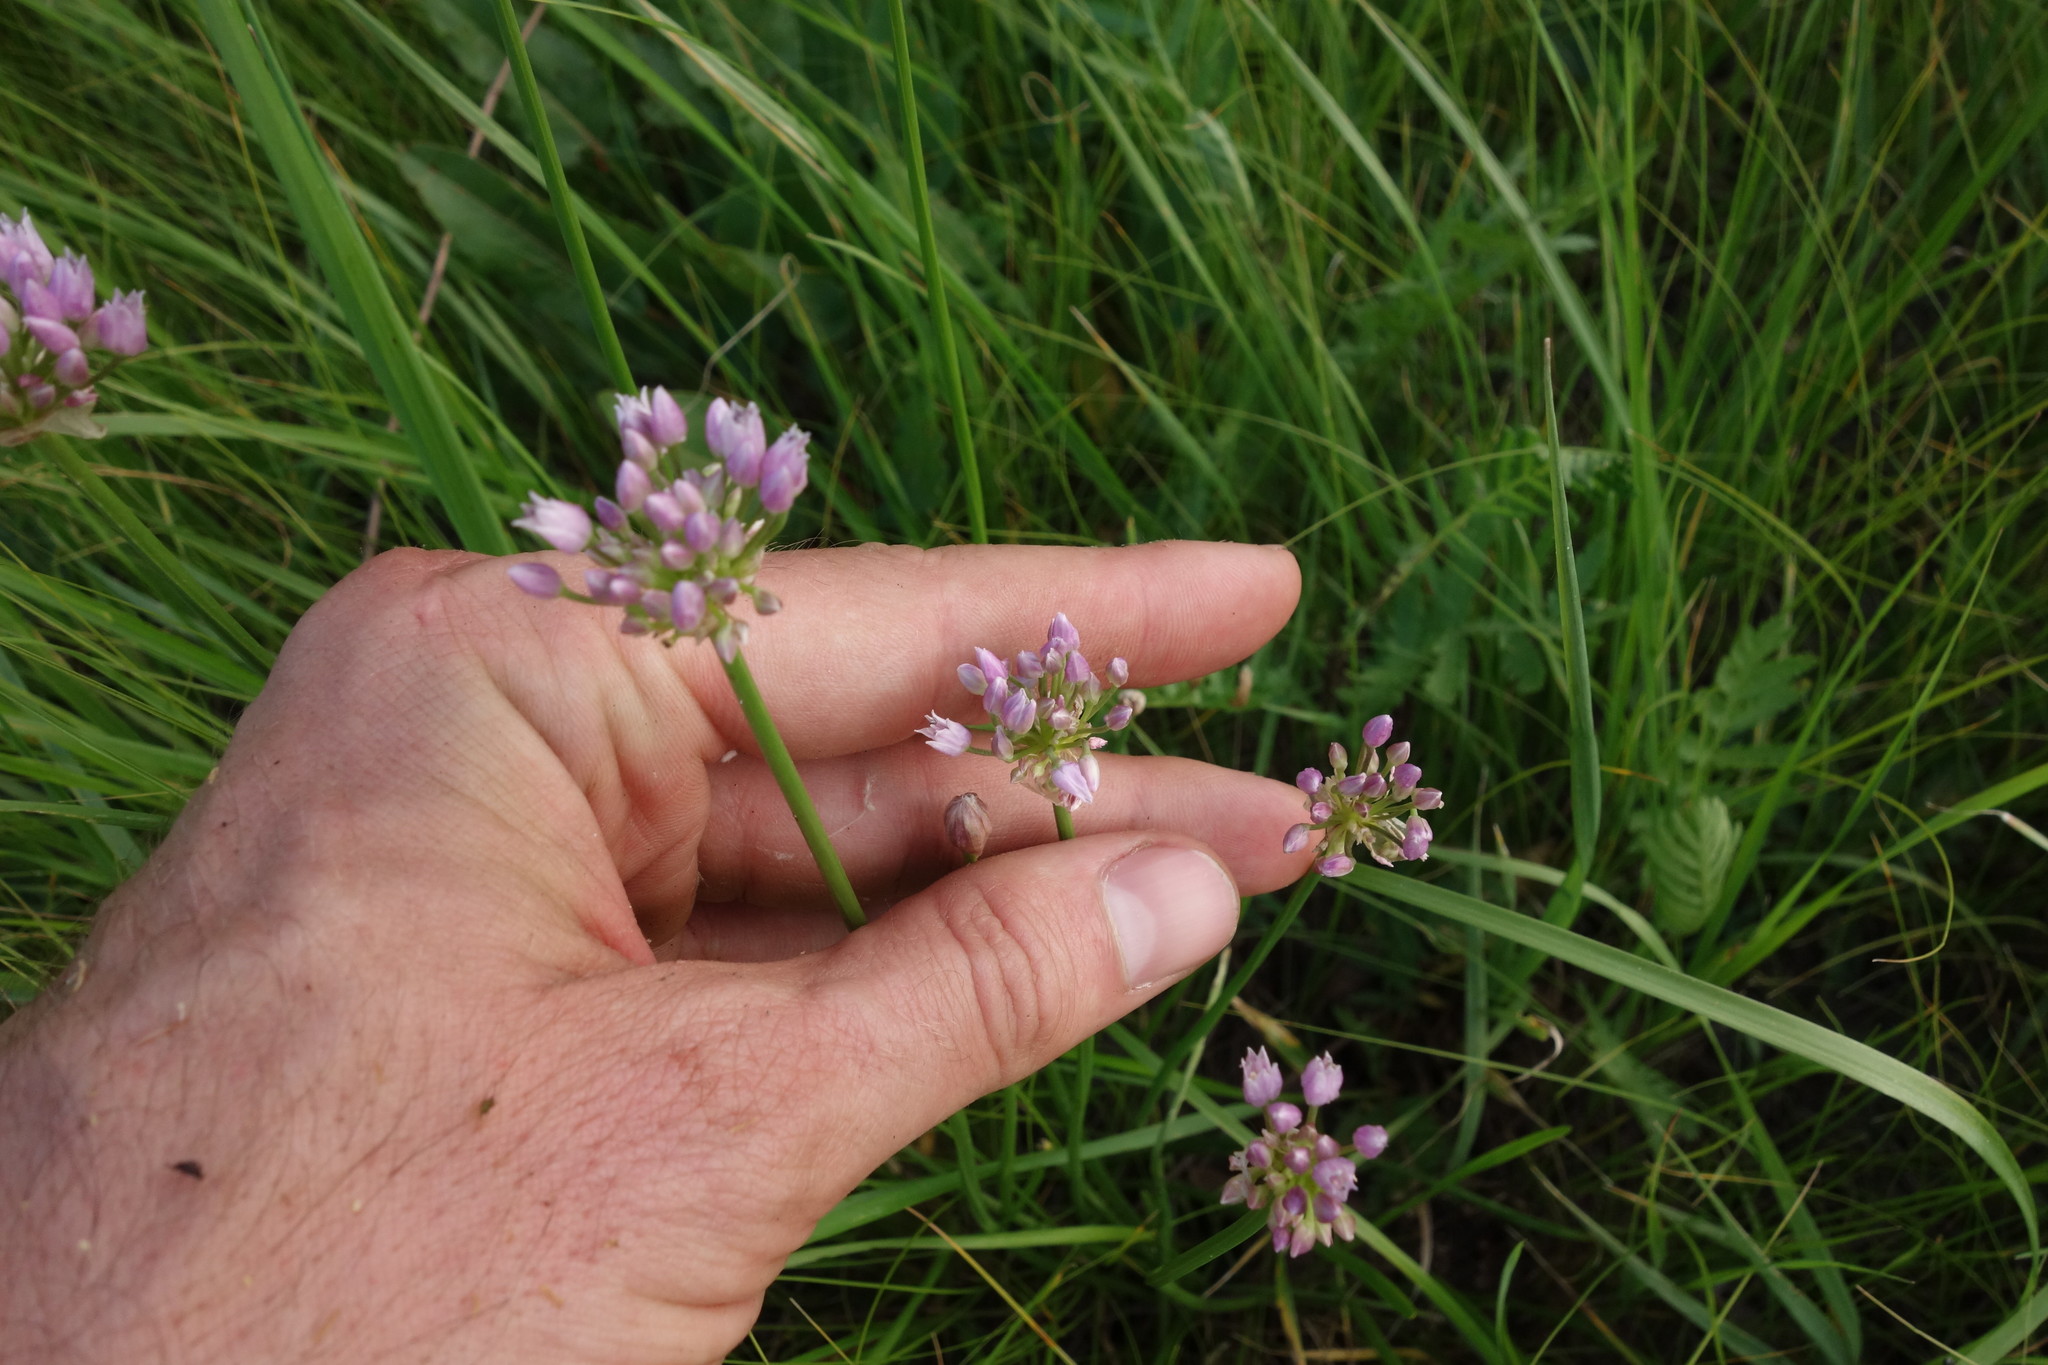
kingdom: Plantae
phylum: Tracheophyta
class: Liliopsida
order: Asparagales
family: Amaryllidaceae
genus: Allium
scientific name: Allium angulosum
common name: Mouse garlic
